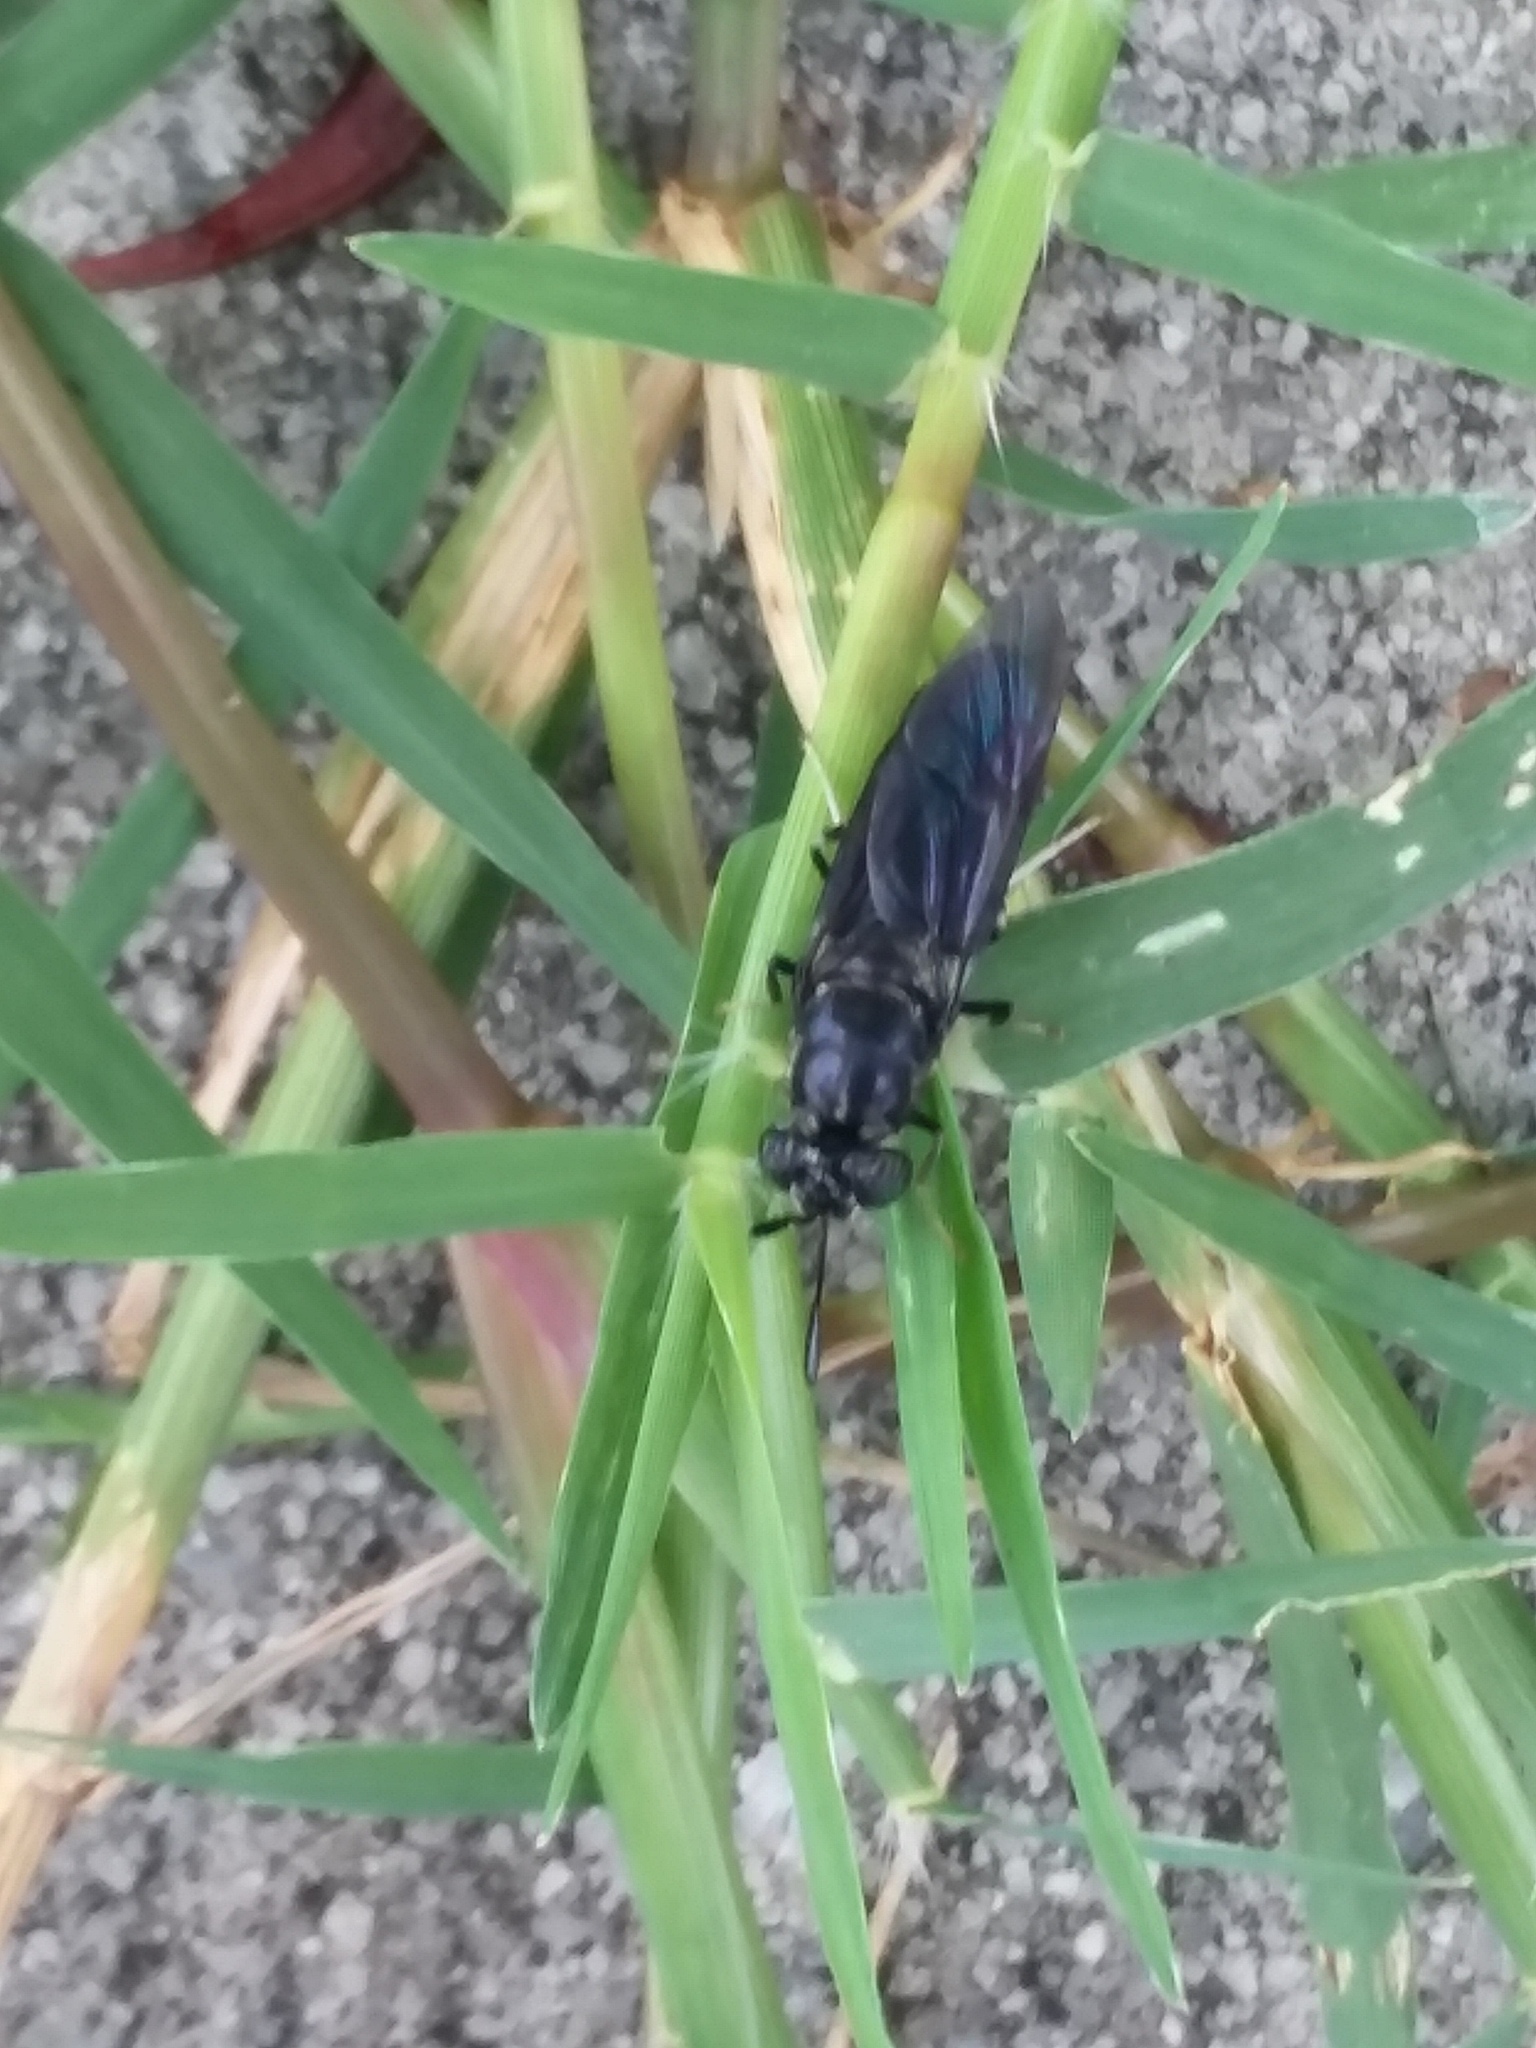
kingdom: Animalia
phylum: Arthropoda
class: Insecta
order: Diptera
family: Stratiomyidae
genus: Hermetia
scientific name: Hermetia illucens
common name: Black soldier fly
